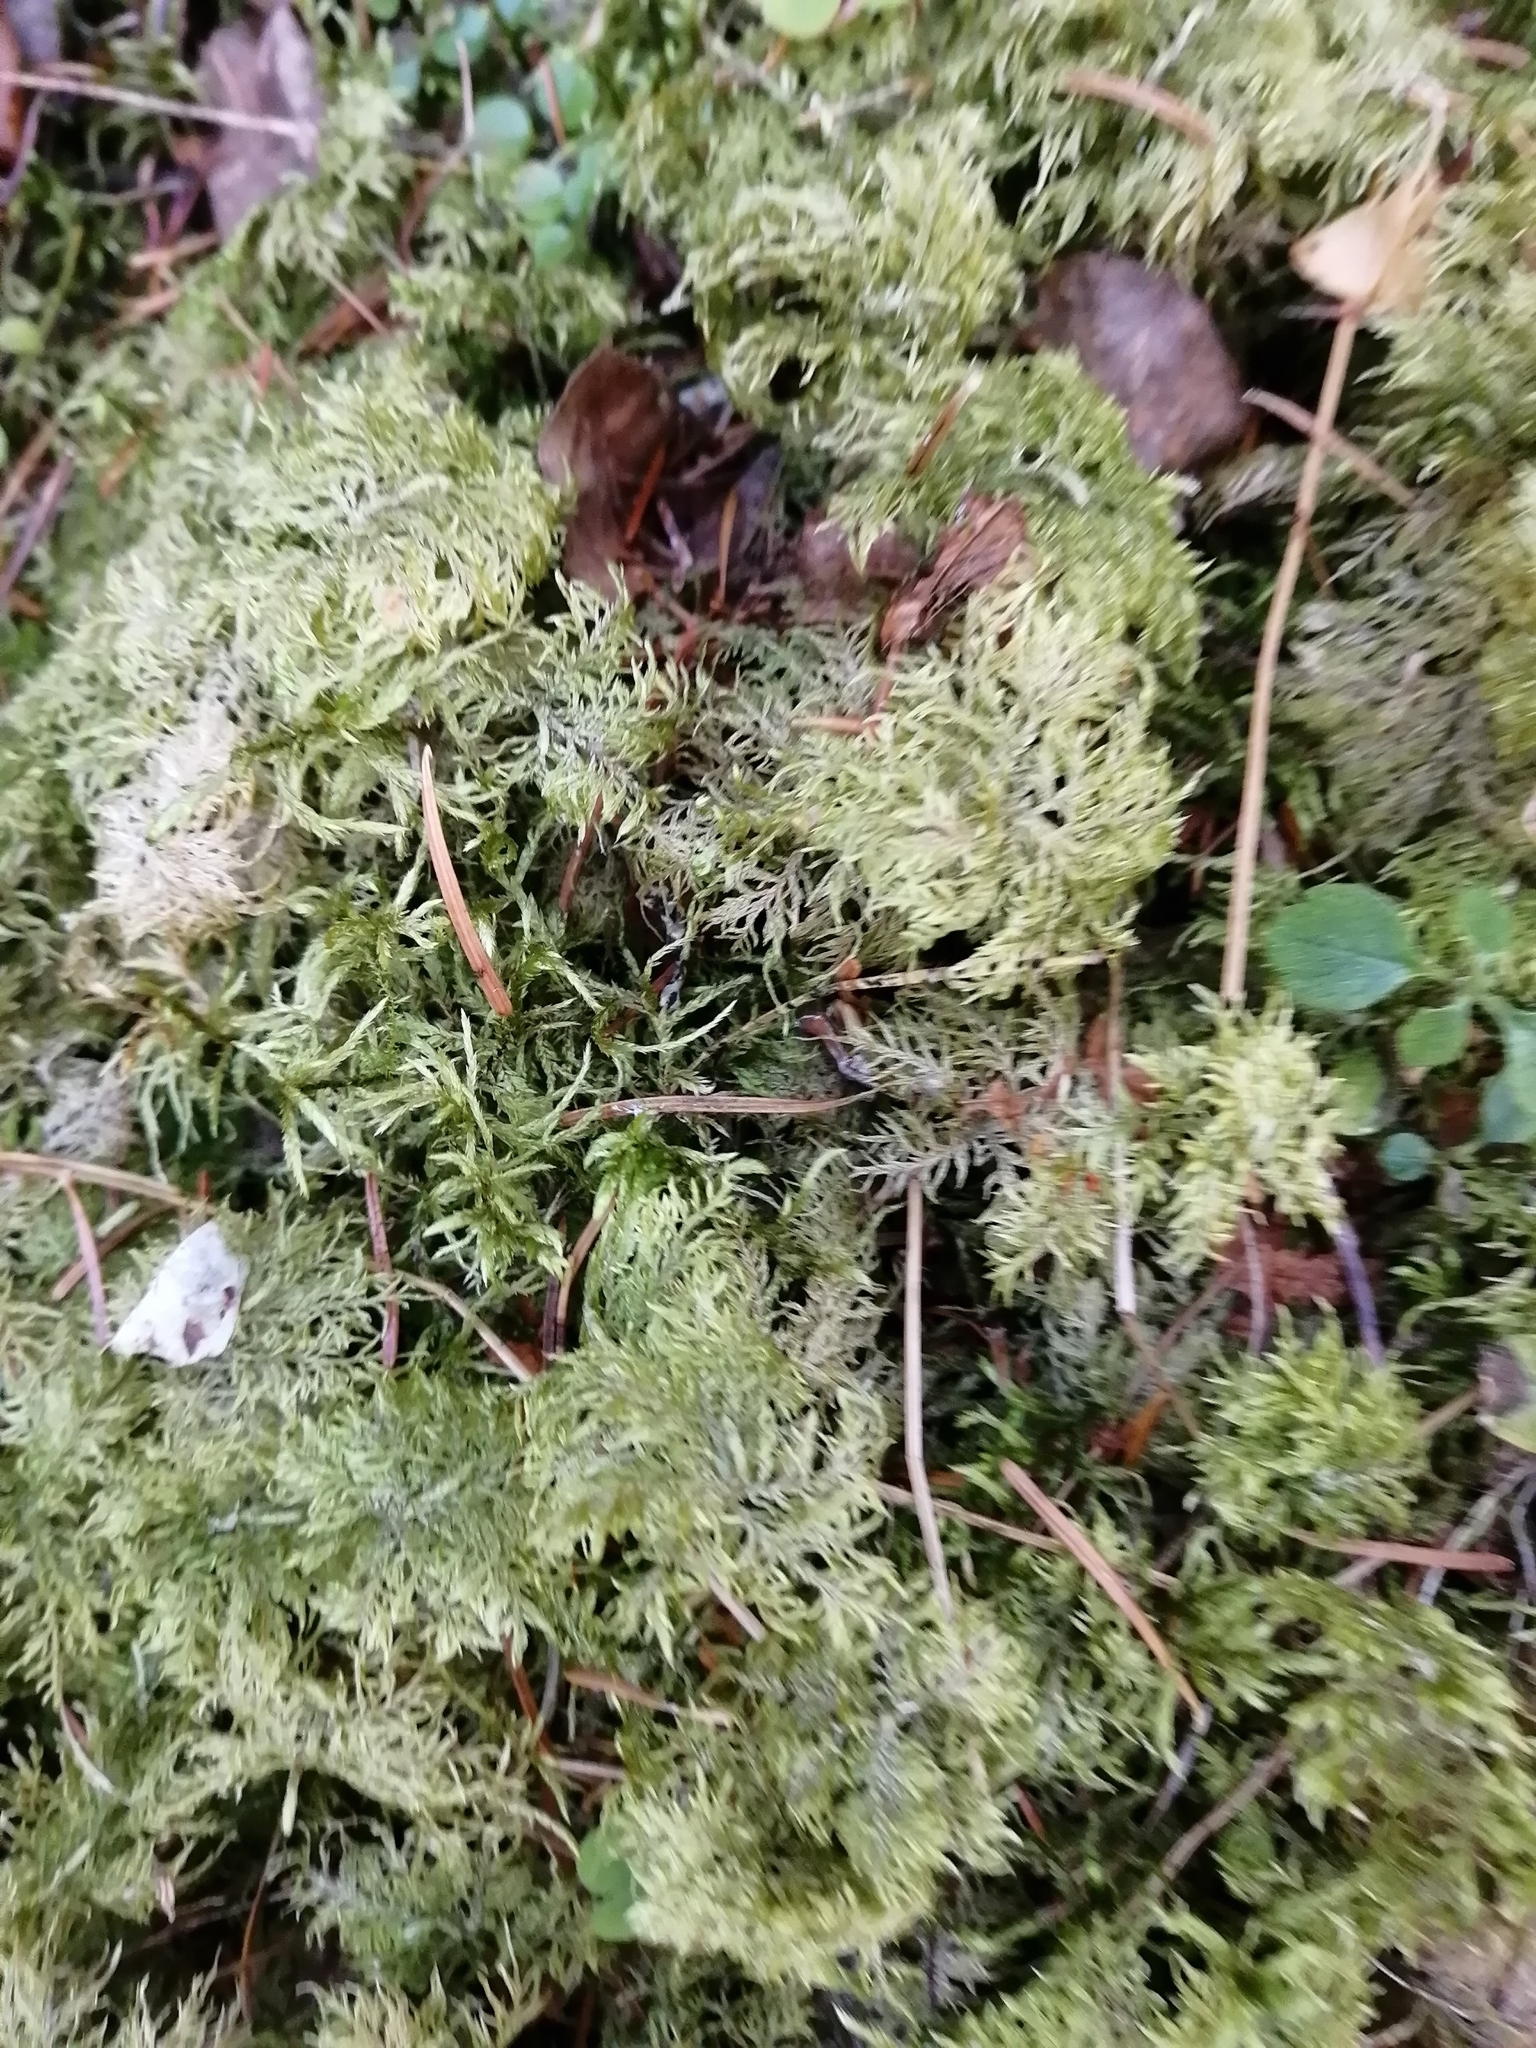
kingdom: Plantae
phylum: Bryophyta
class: Bryopsida
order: Hypnales
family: Hylocomiaceae
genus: Hylocomium
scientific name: Hylocomium splendens
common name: Stairstep moss
